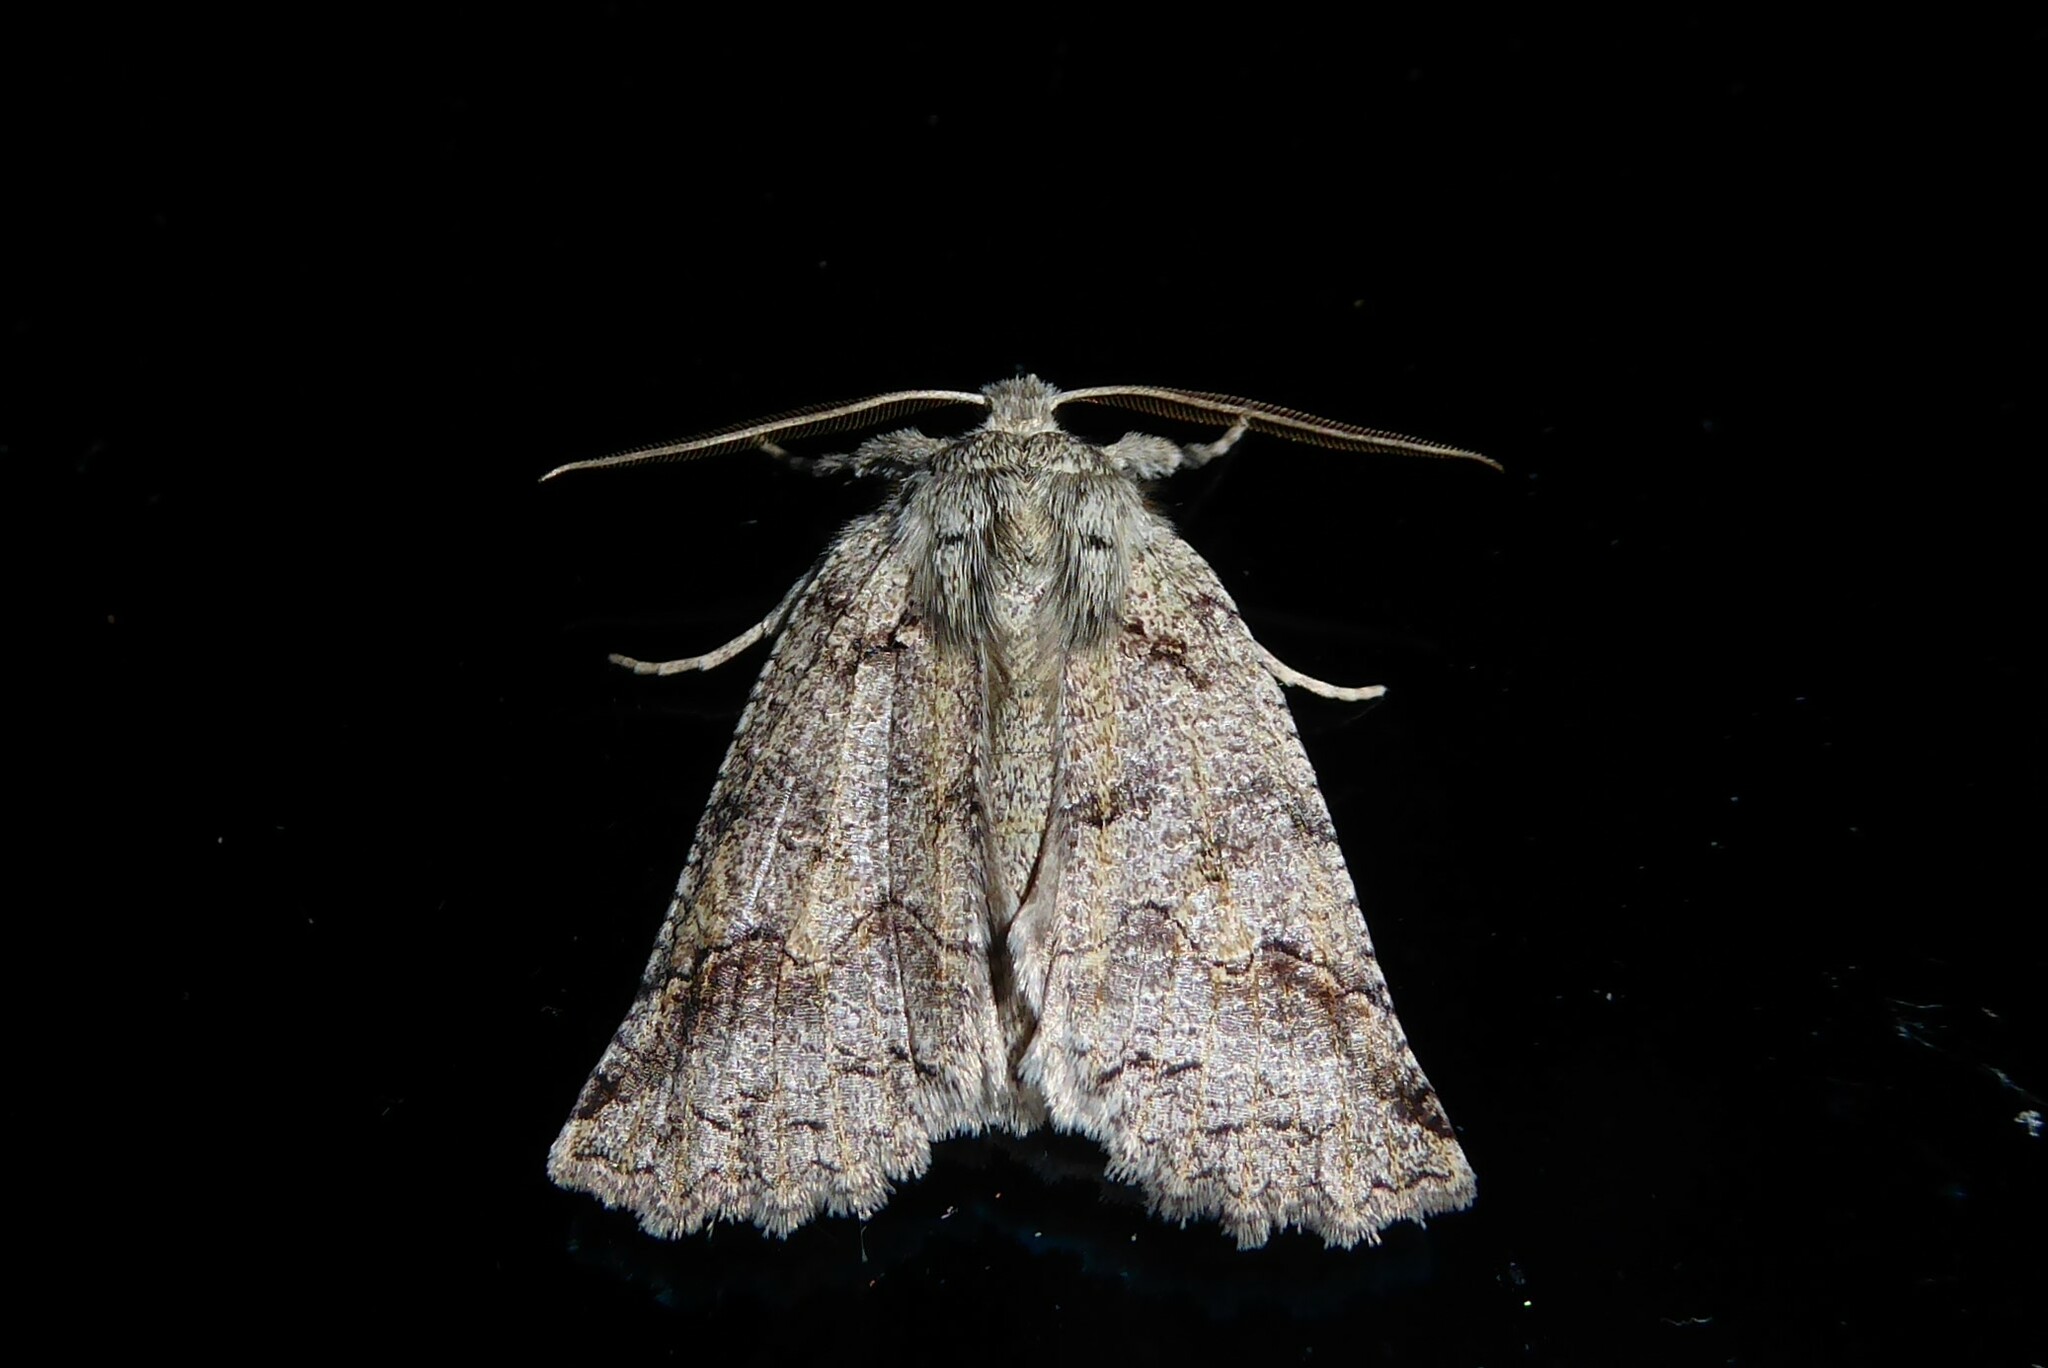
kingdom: Animalia
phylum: Arthropoda
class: Insecta
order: Lepidoptera
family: Geometridae
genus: Declana
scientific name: Declana floccosa
